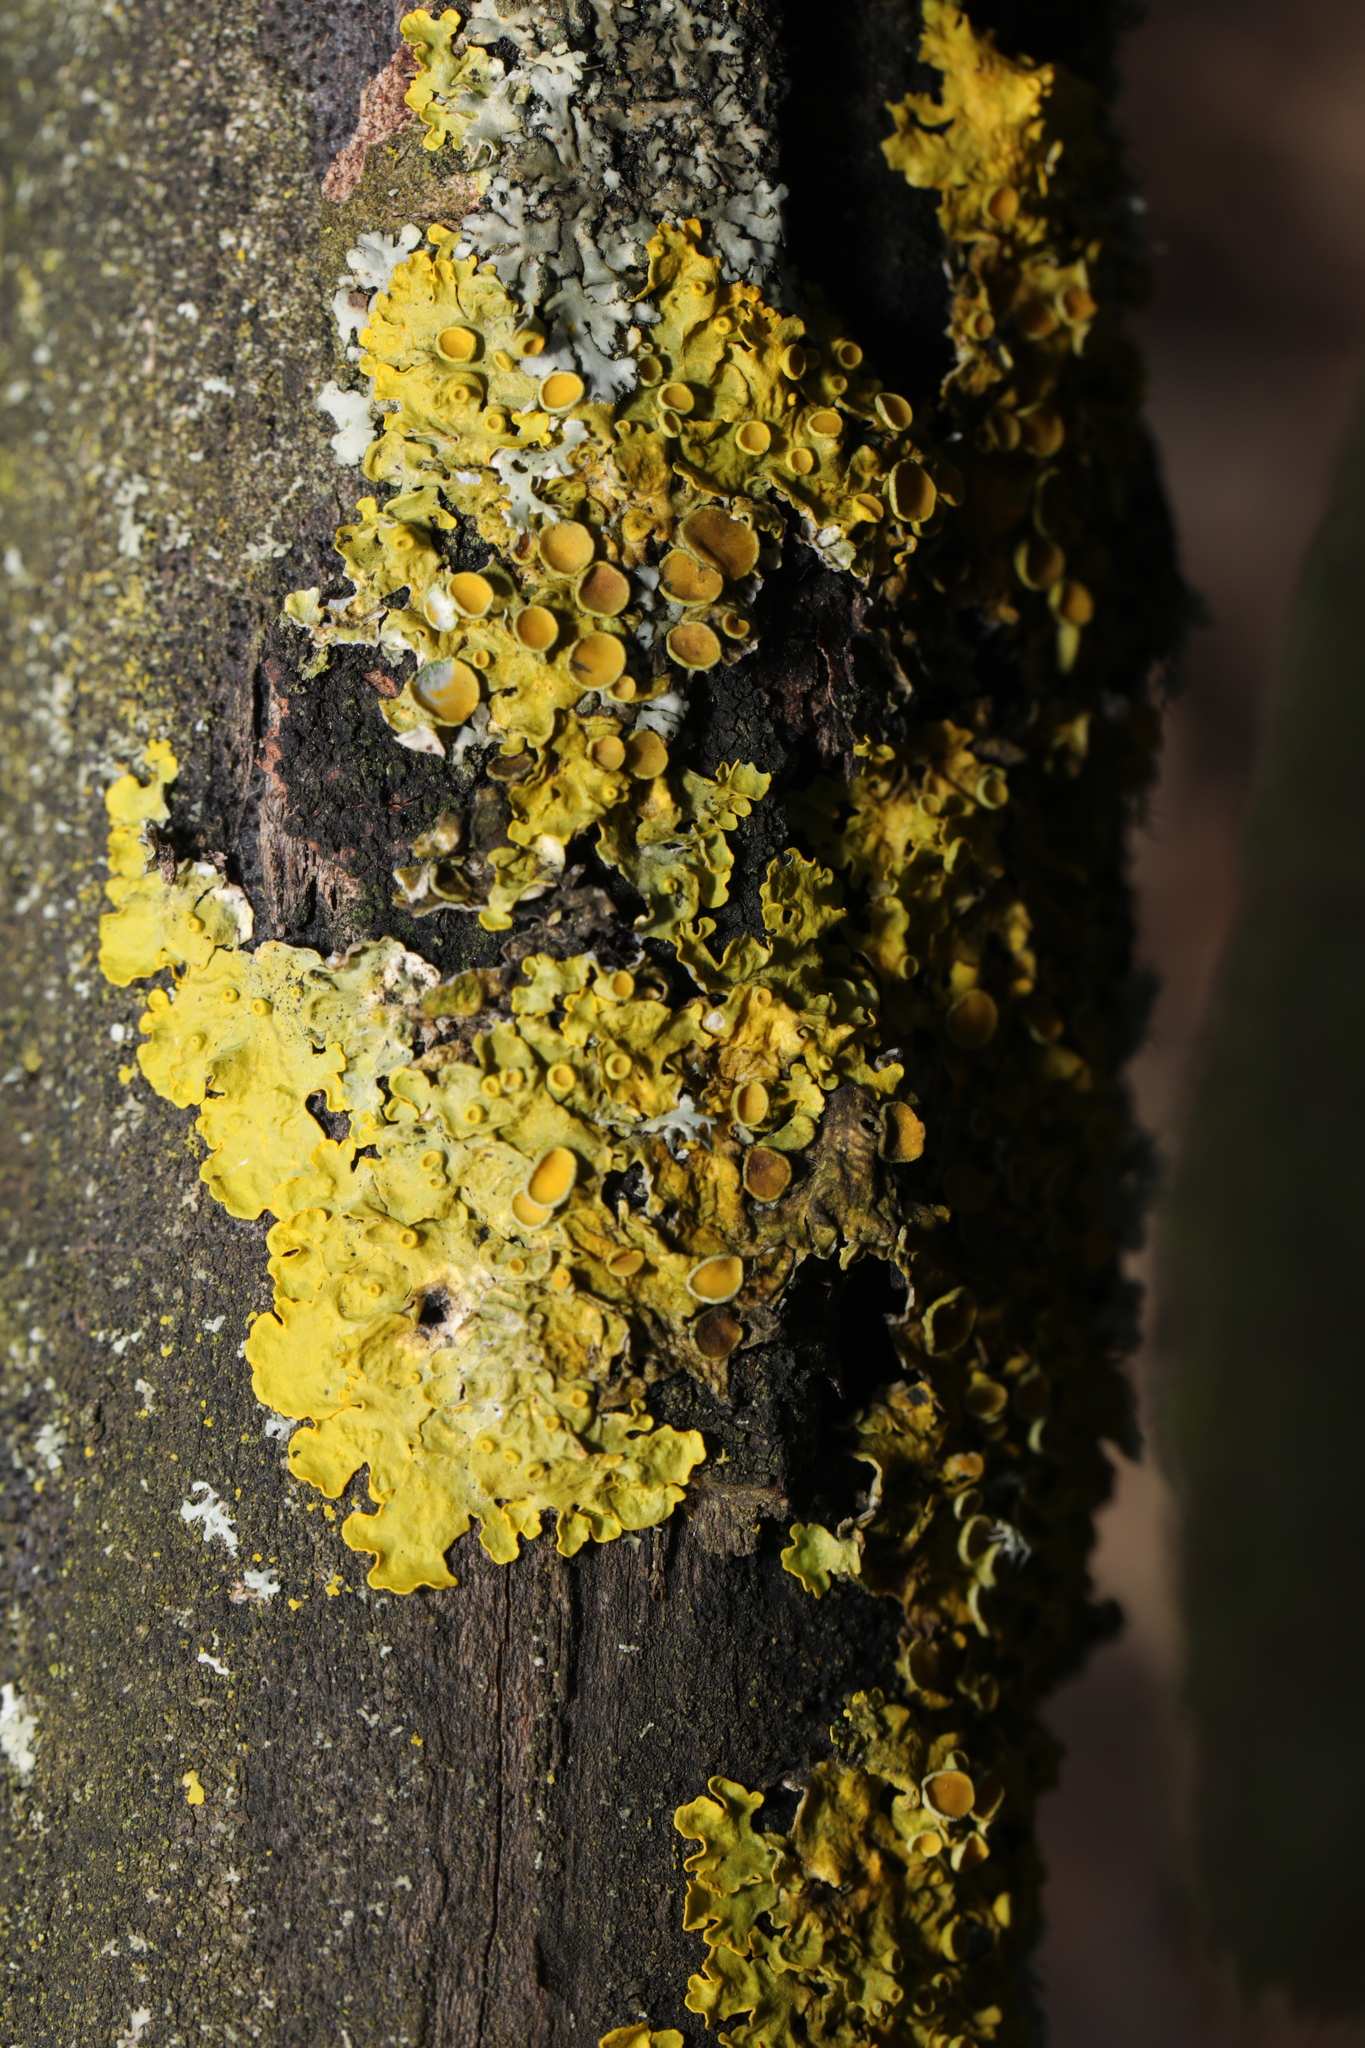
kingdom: Fungi
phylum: Ascomycota
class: Lecanoromycetes
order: Teloschistales
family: Teloschistaceae
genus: Xanthoria
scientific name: Xanthoria parietina
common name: Common orange lichen
